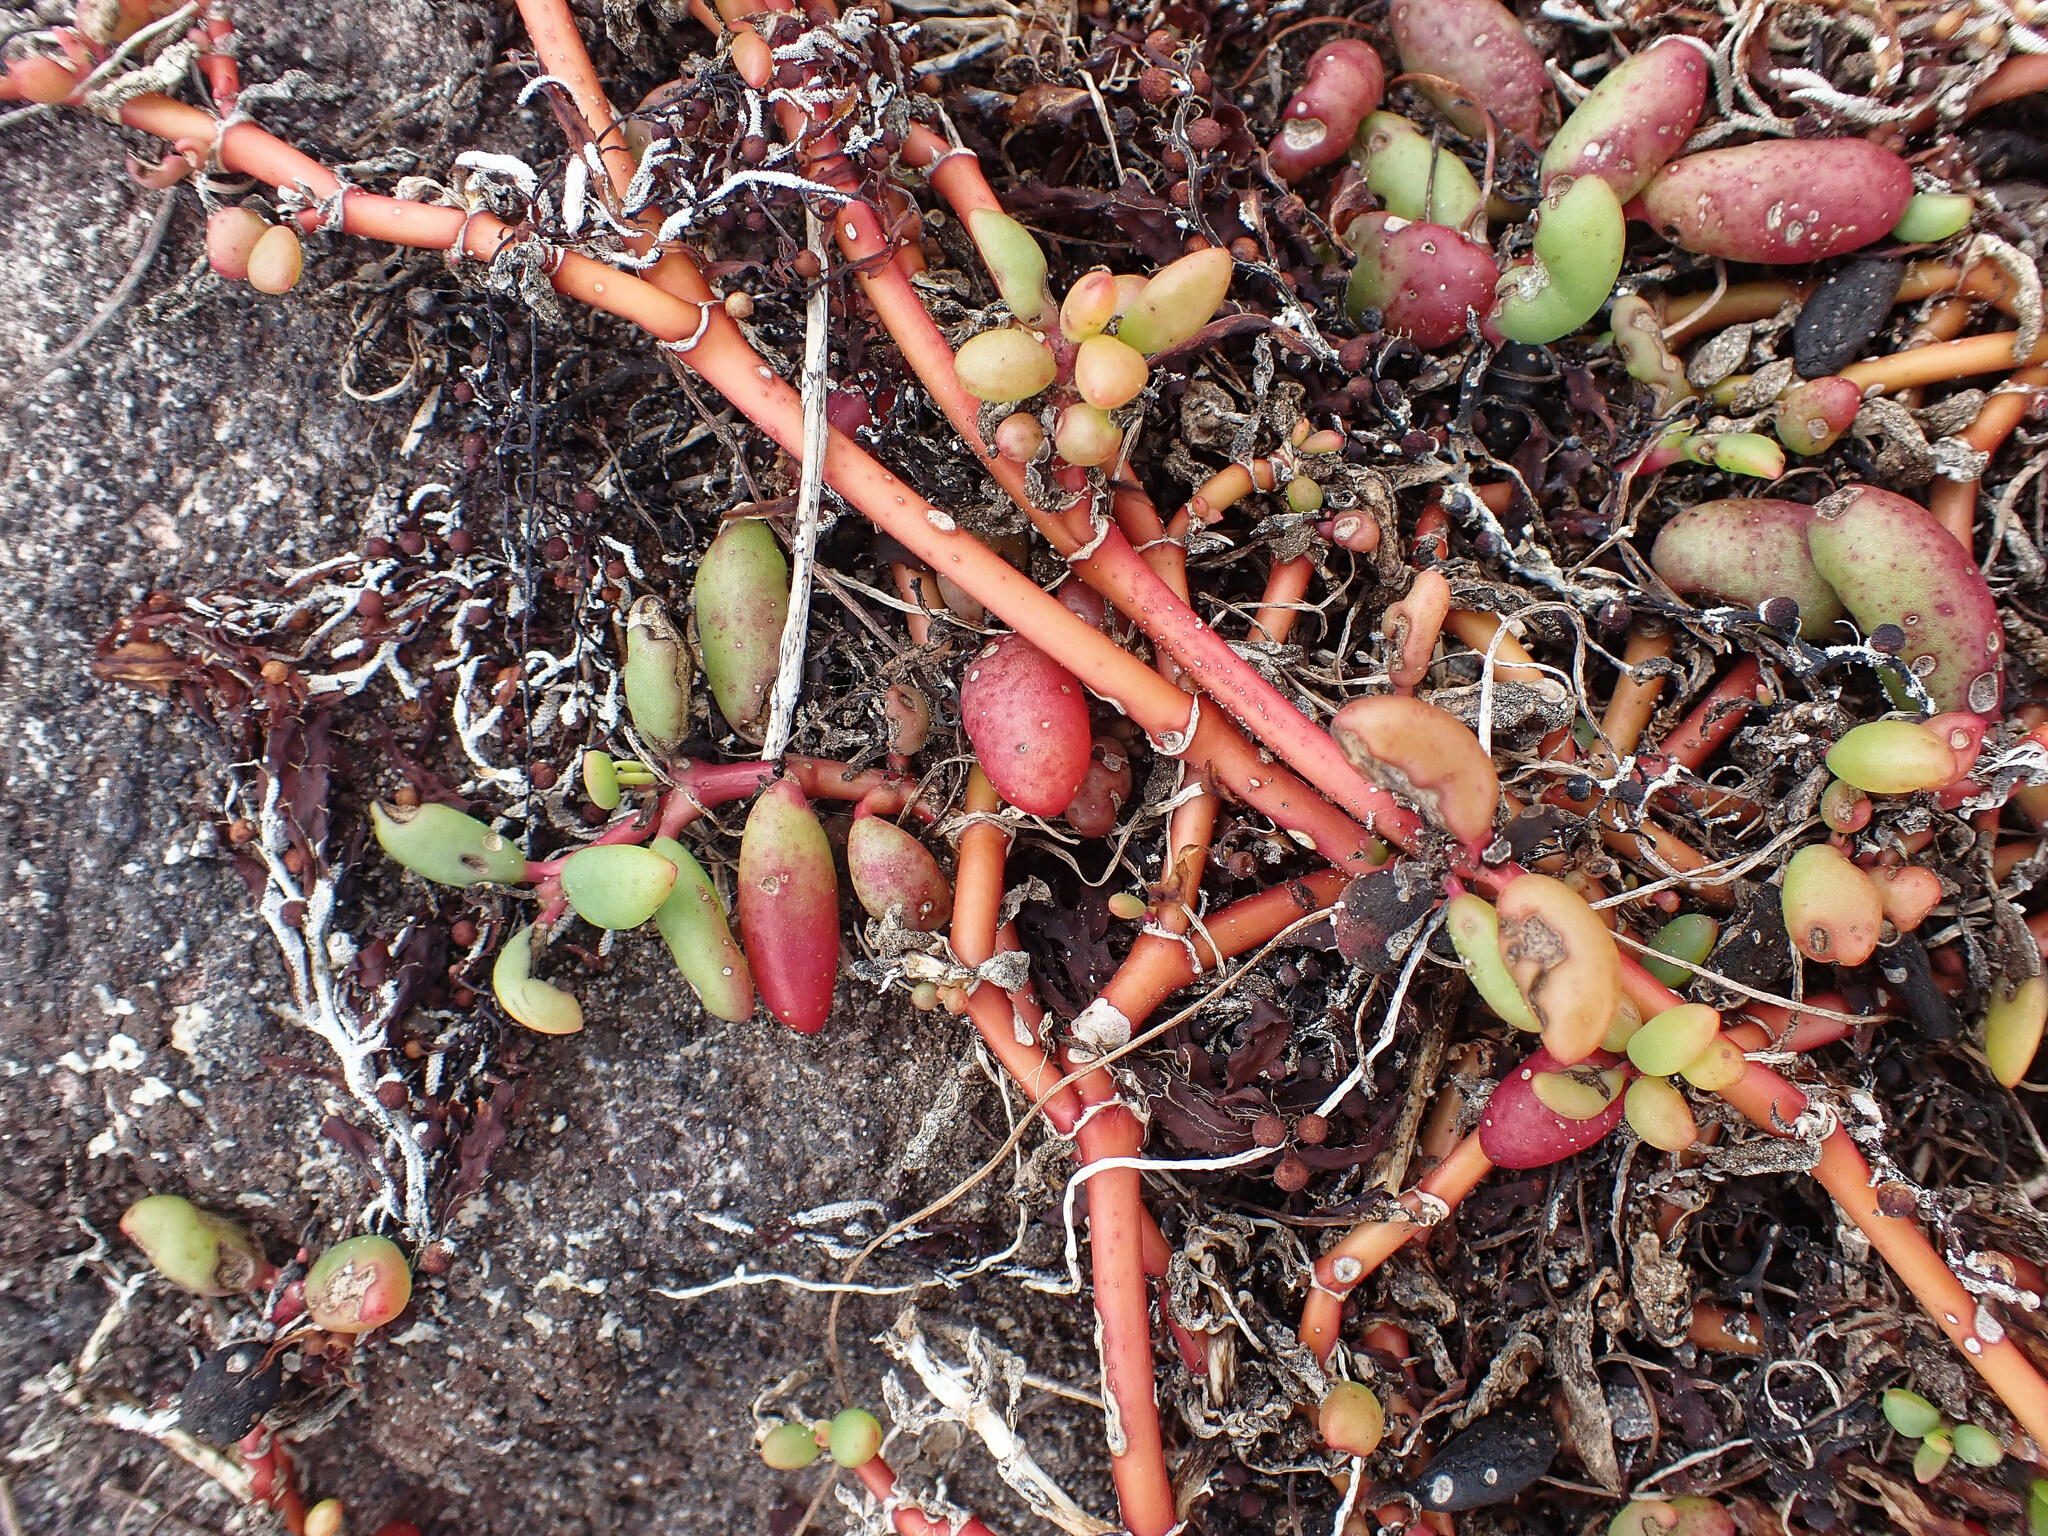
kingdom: Plantae
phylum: Tracheophyta
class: Magnoliopsida
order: Caryophyllales
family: Aizoaceae
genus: Sesuvium
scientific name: Sesuvium portulacastrum
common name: Sea-purslane
